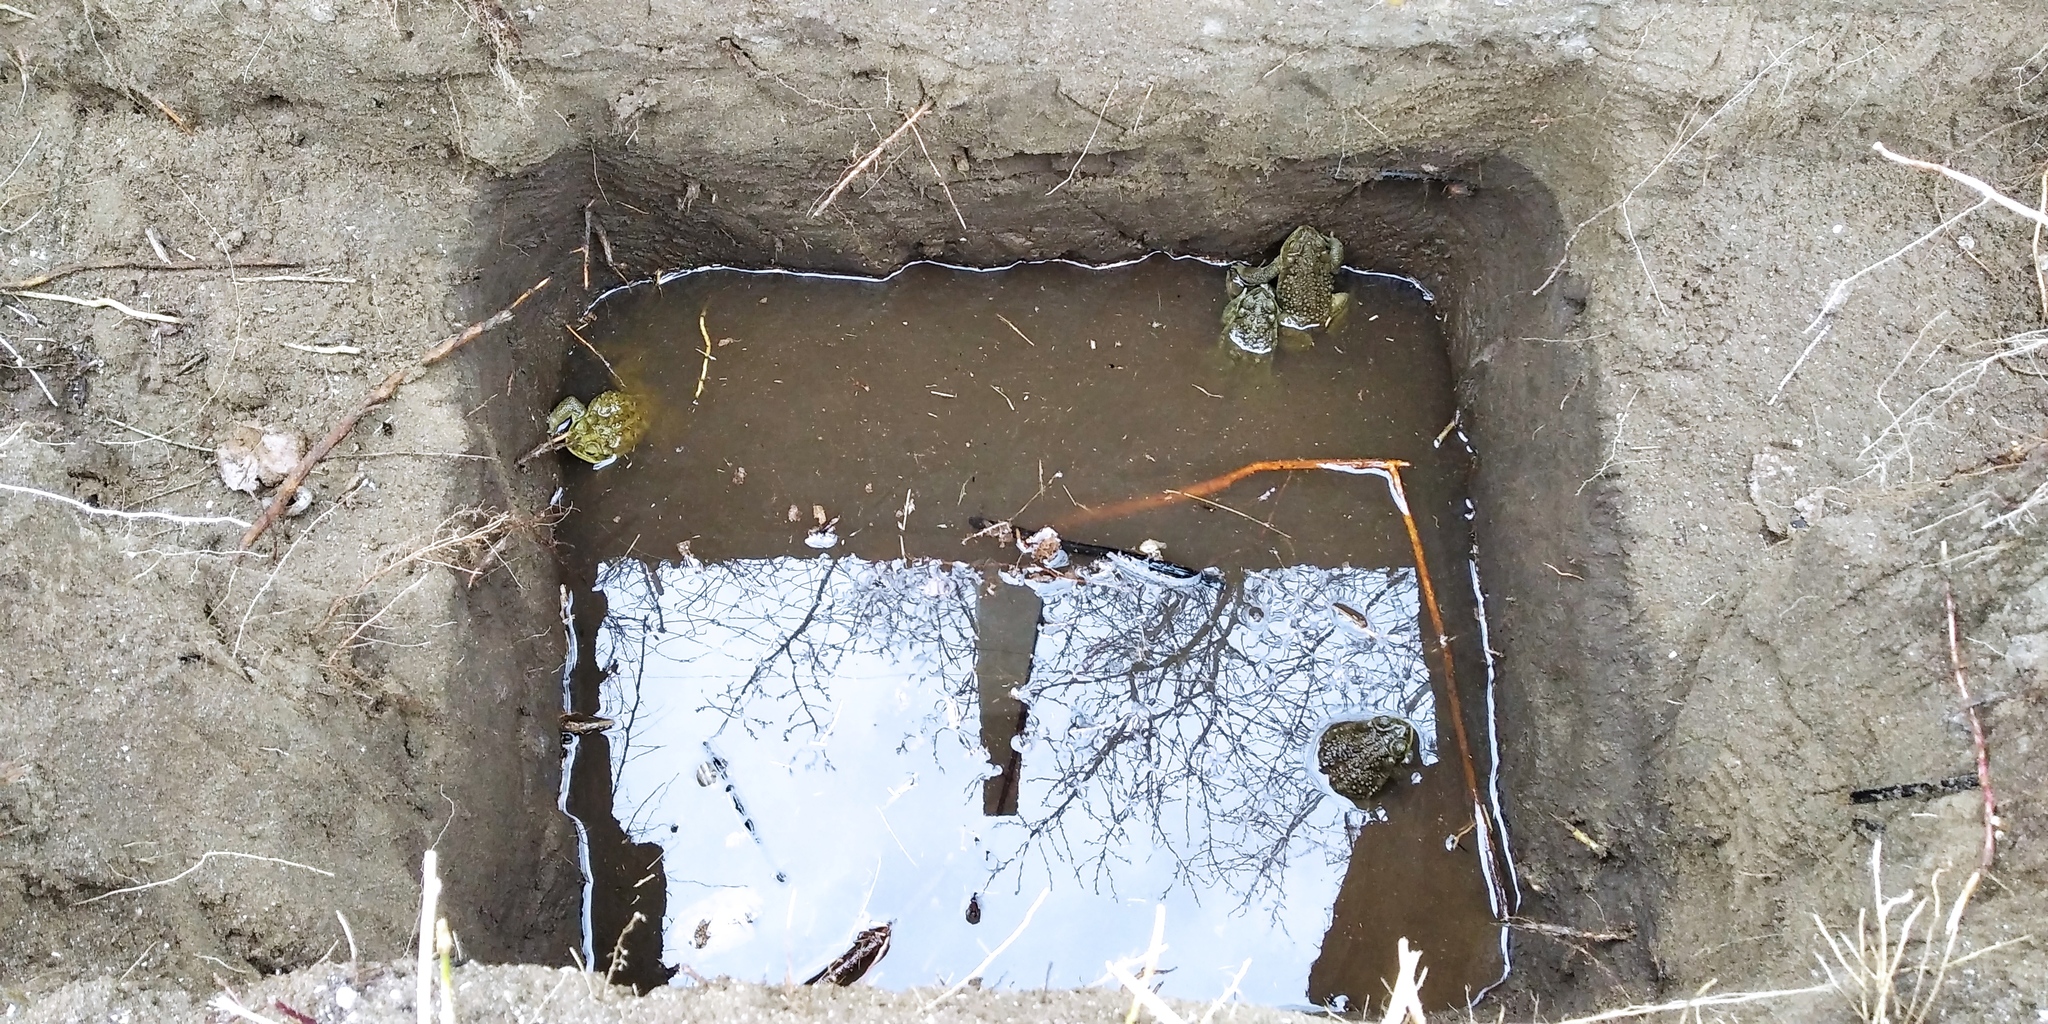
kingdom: Animalia
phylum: Chordata
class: Amphibia
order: Anura
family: Bufonidae
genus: Rhinella
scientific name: Rhinella arenarum
